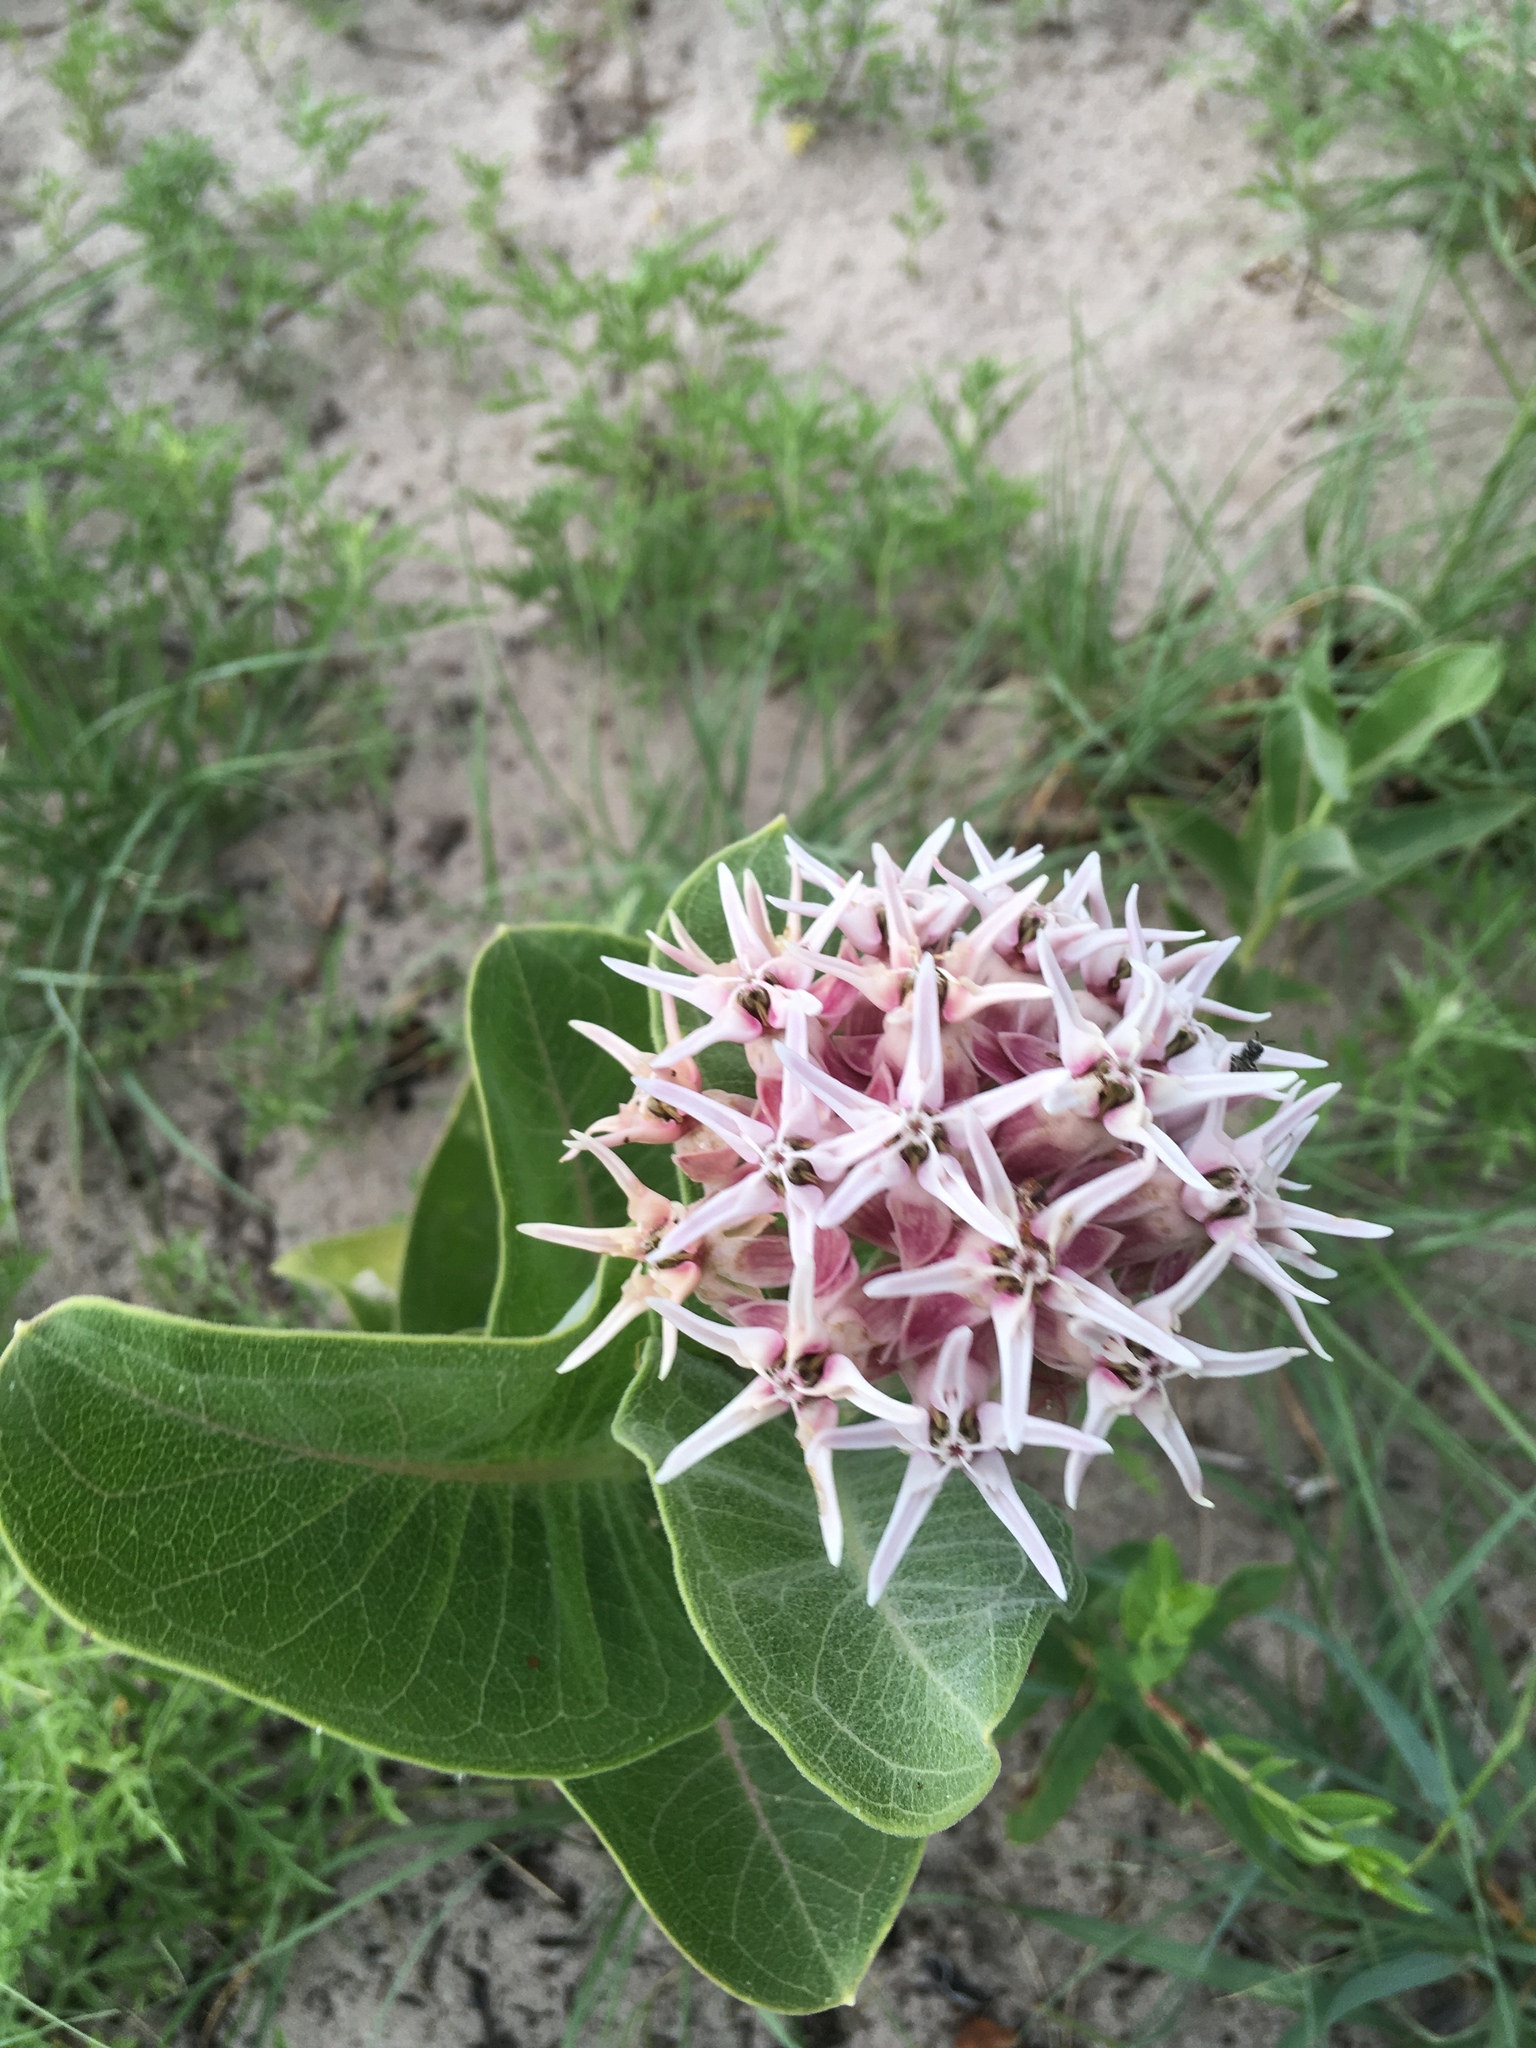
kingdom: Plantae
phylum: Tracheophyta
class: Magnoliopsida
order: Gentianales
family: Apocynaceae
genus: Asclepias
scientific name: Asclepias speciosa
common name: Showy milkweed
